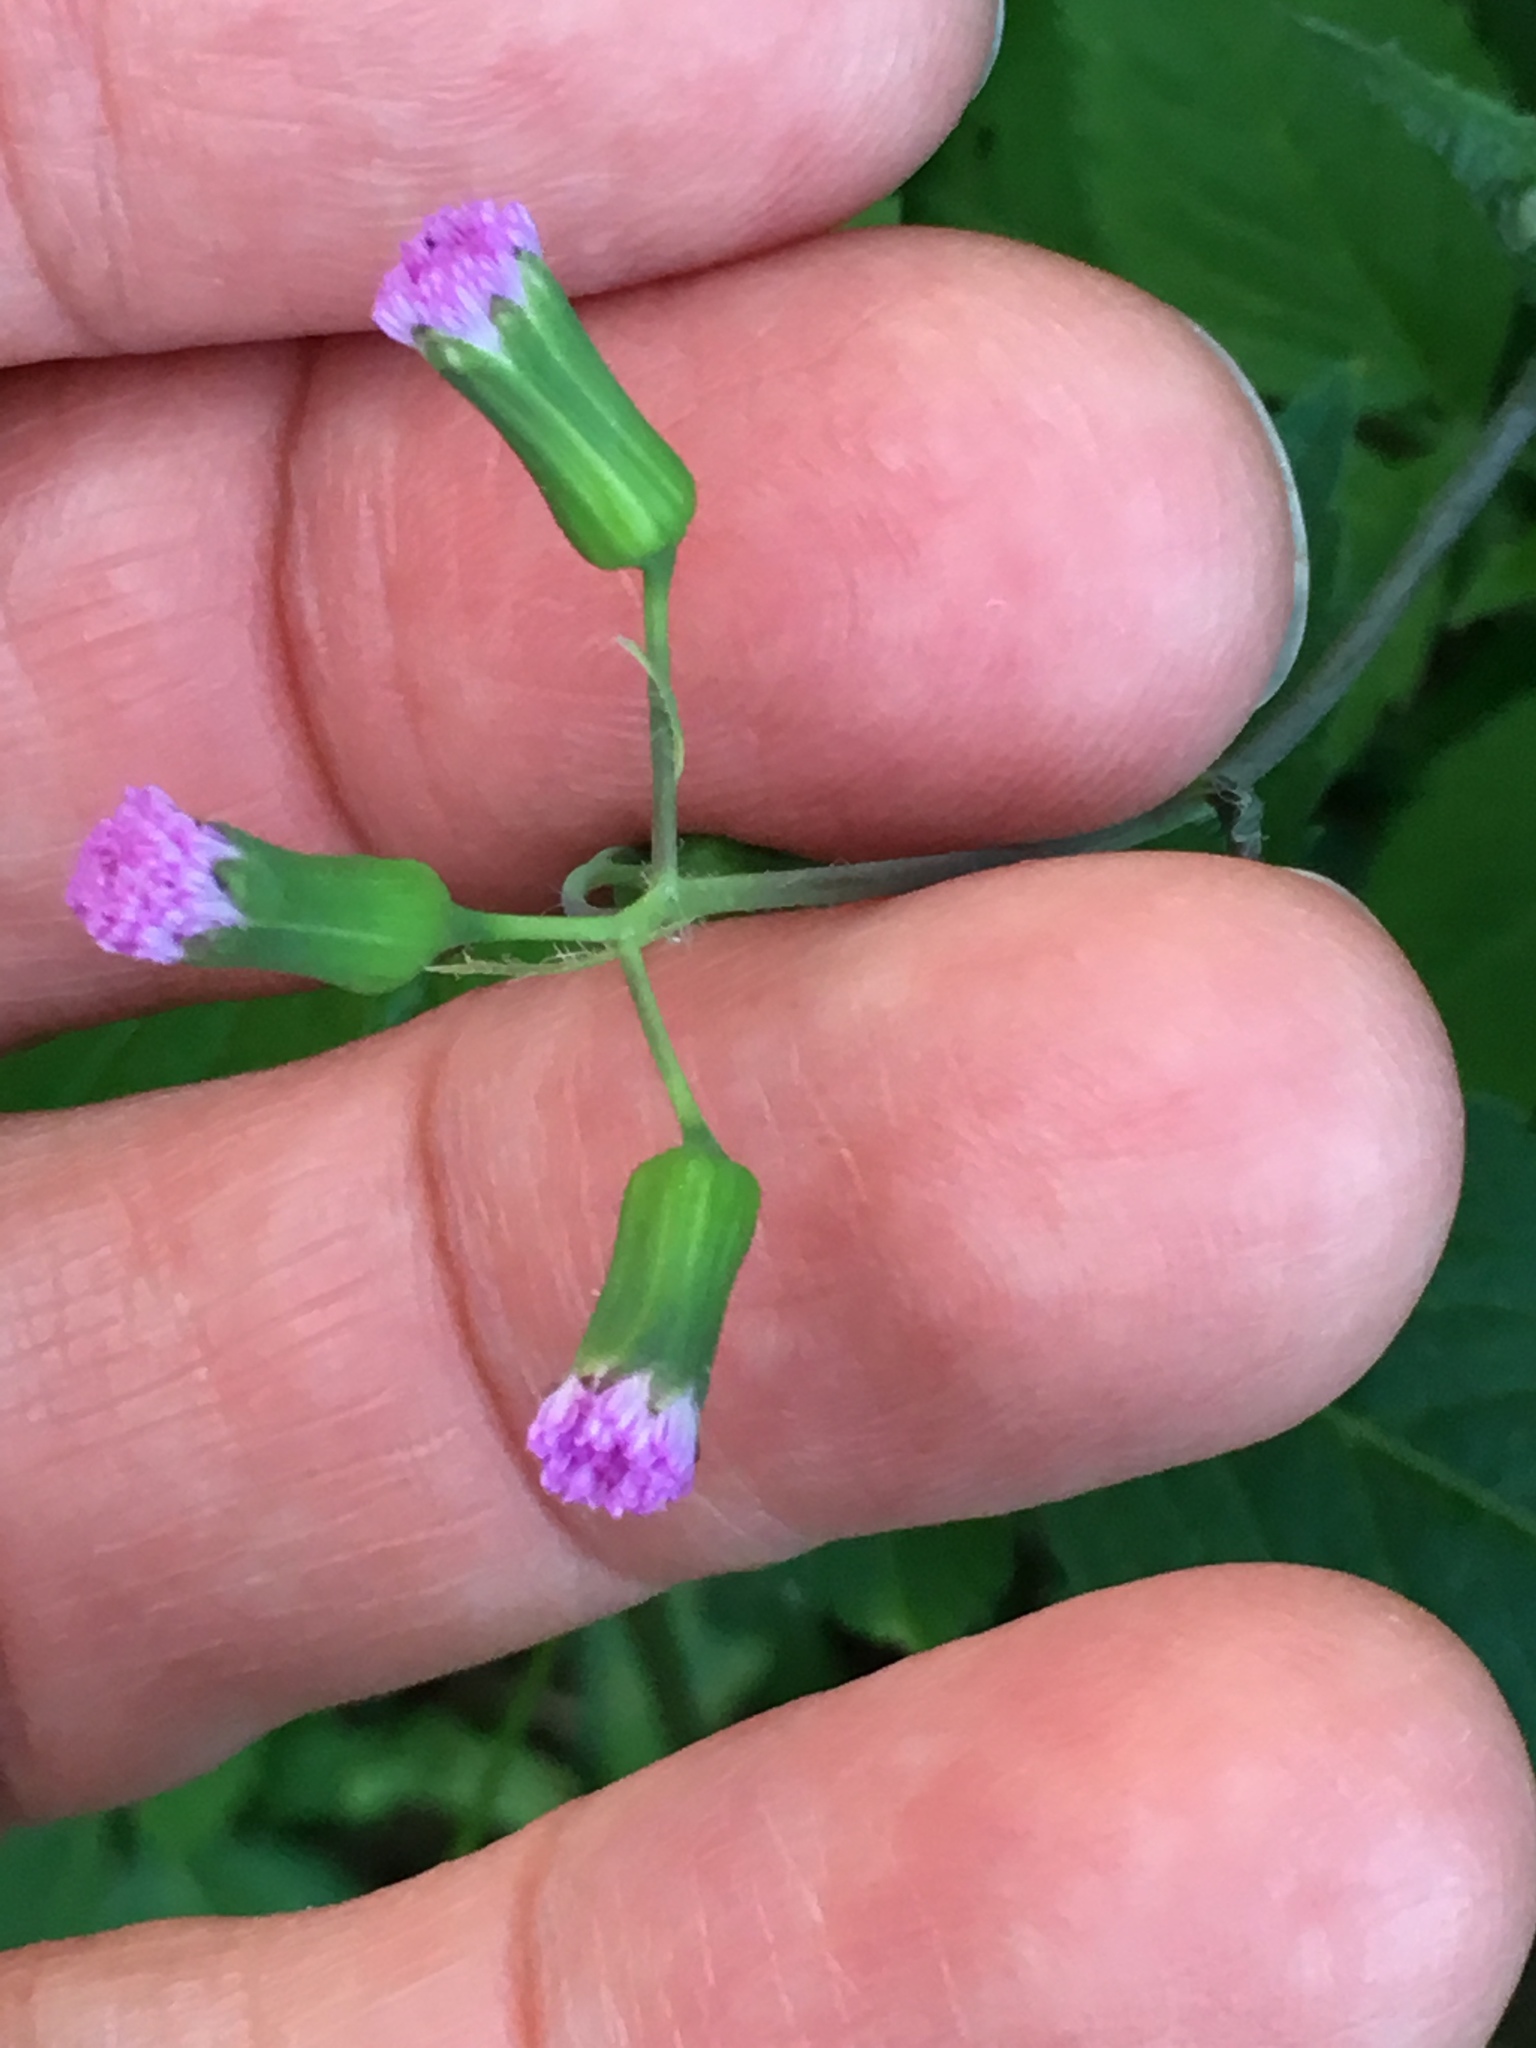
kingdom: Plantae
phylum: Tracheophyta
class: Magnoliopsida
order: Asterales
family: Asteraceae
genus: Emilia
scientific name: Emilia sonchifolia
